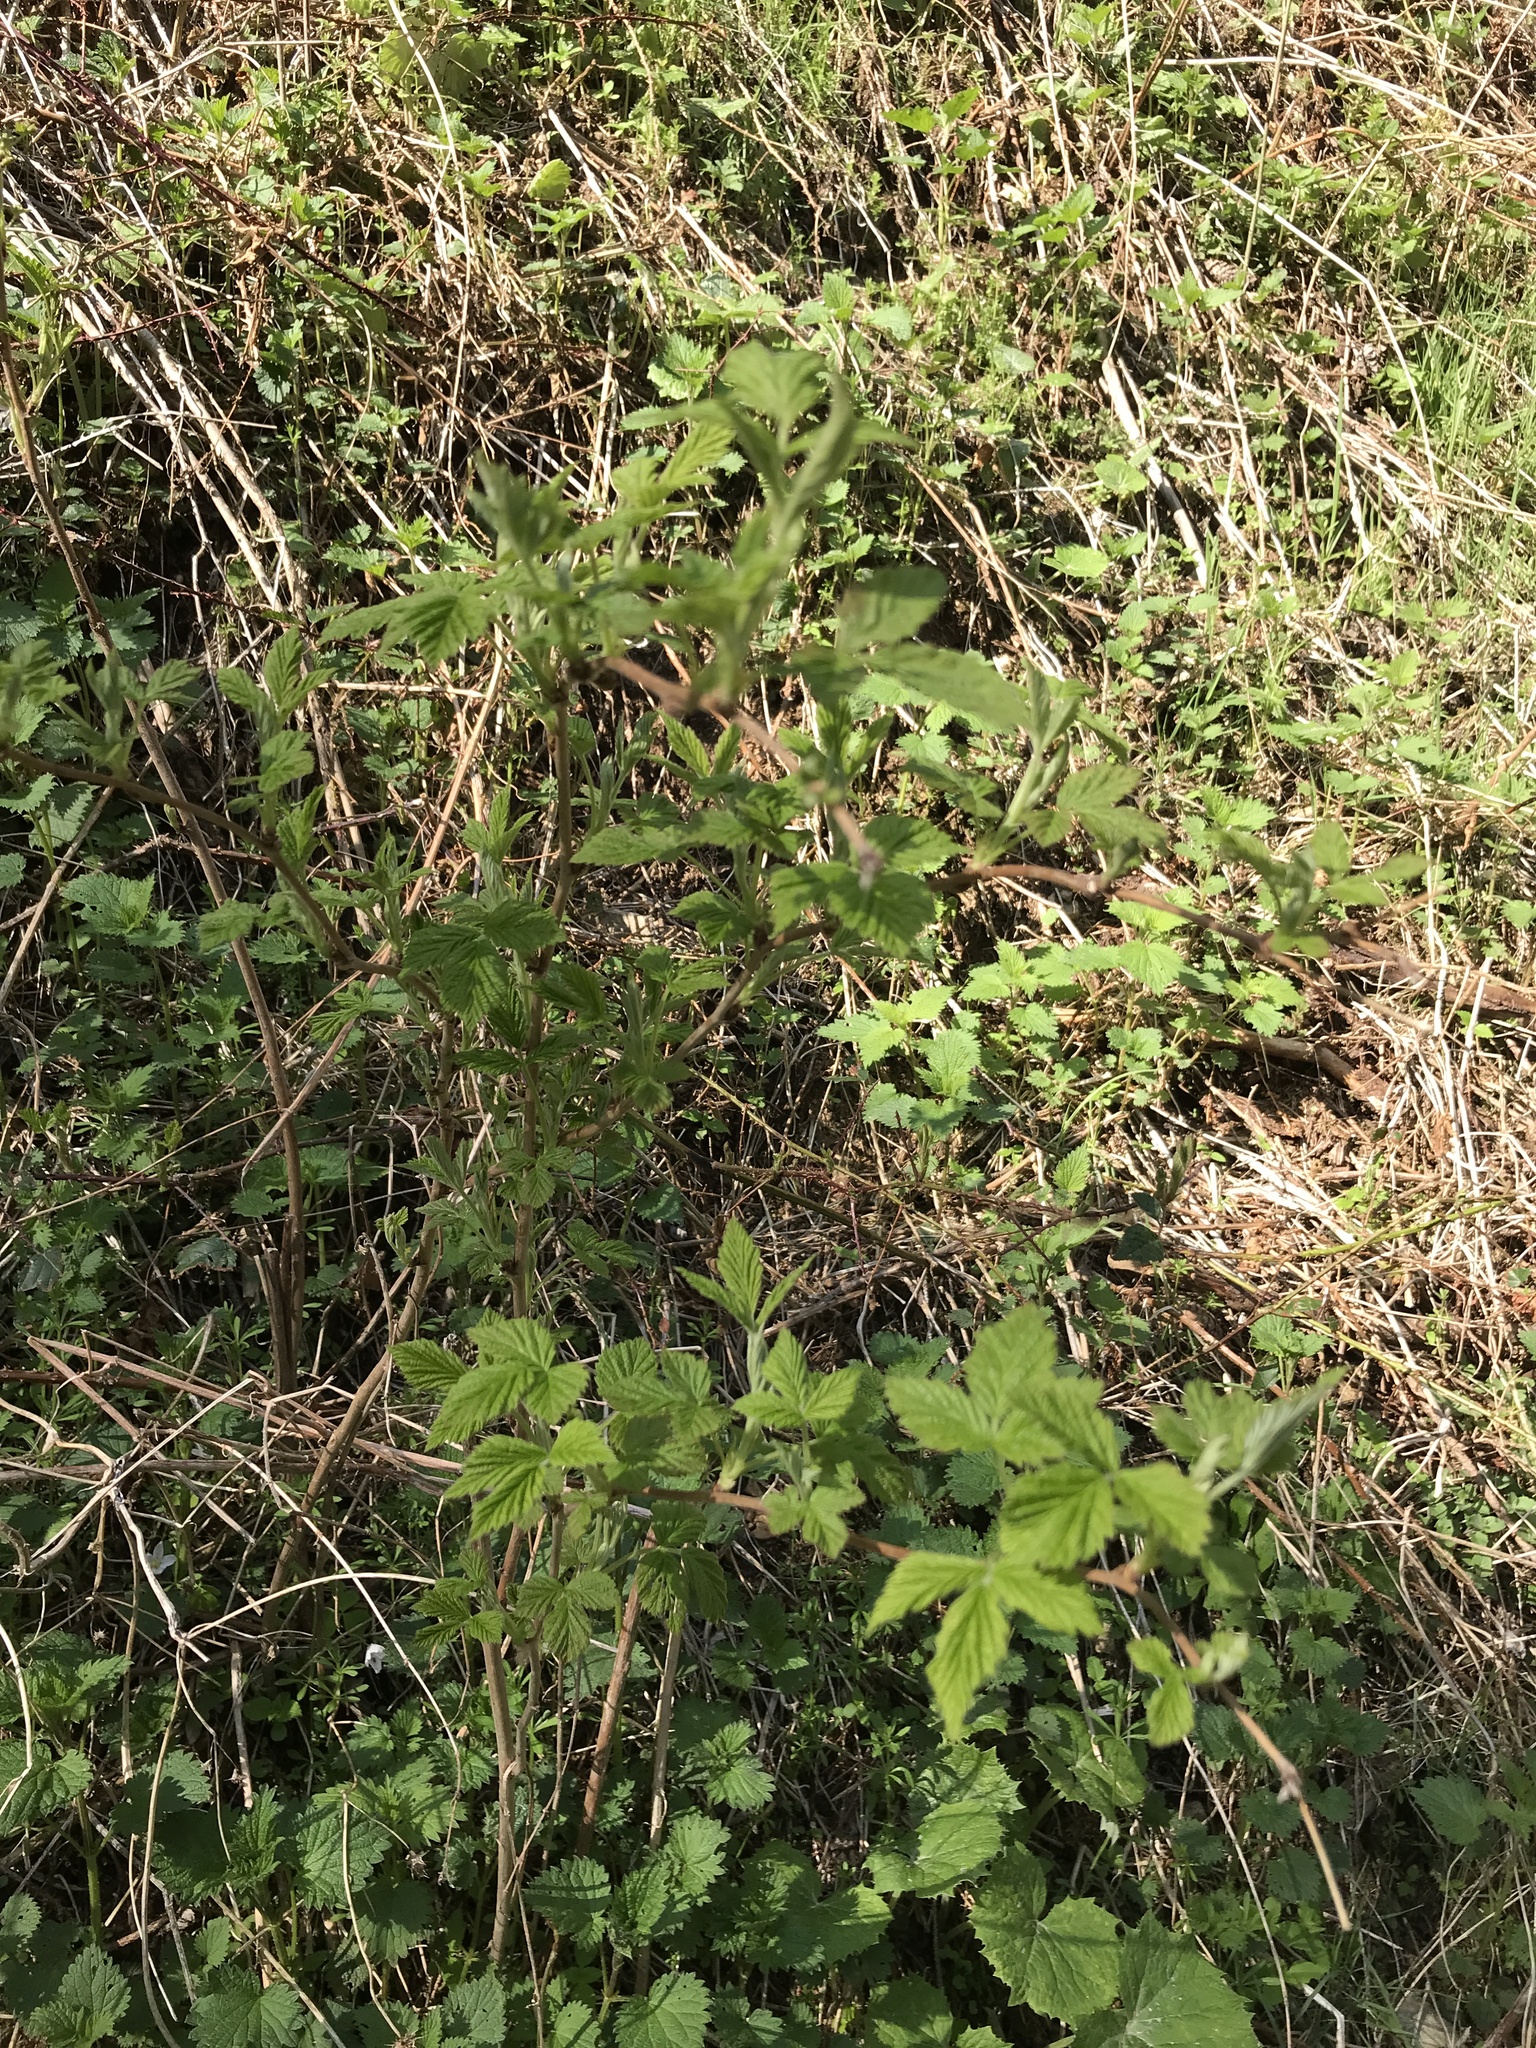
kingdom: Plantae
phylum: Tracheophyta
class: Magnoliopsida
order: Rosales
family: Rosaceae
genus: Rubus
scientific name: Rubus idaeus
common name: Raspberry
